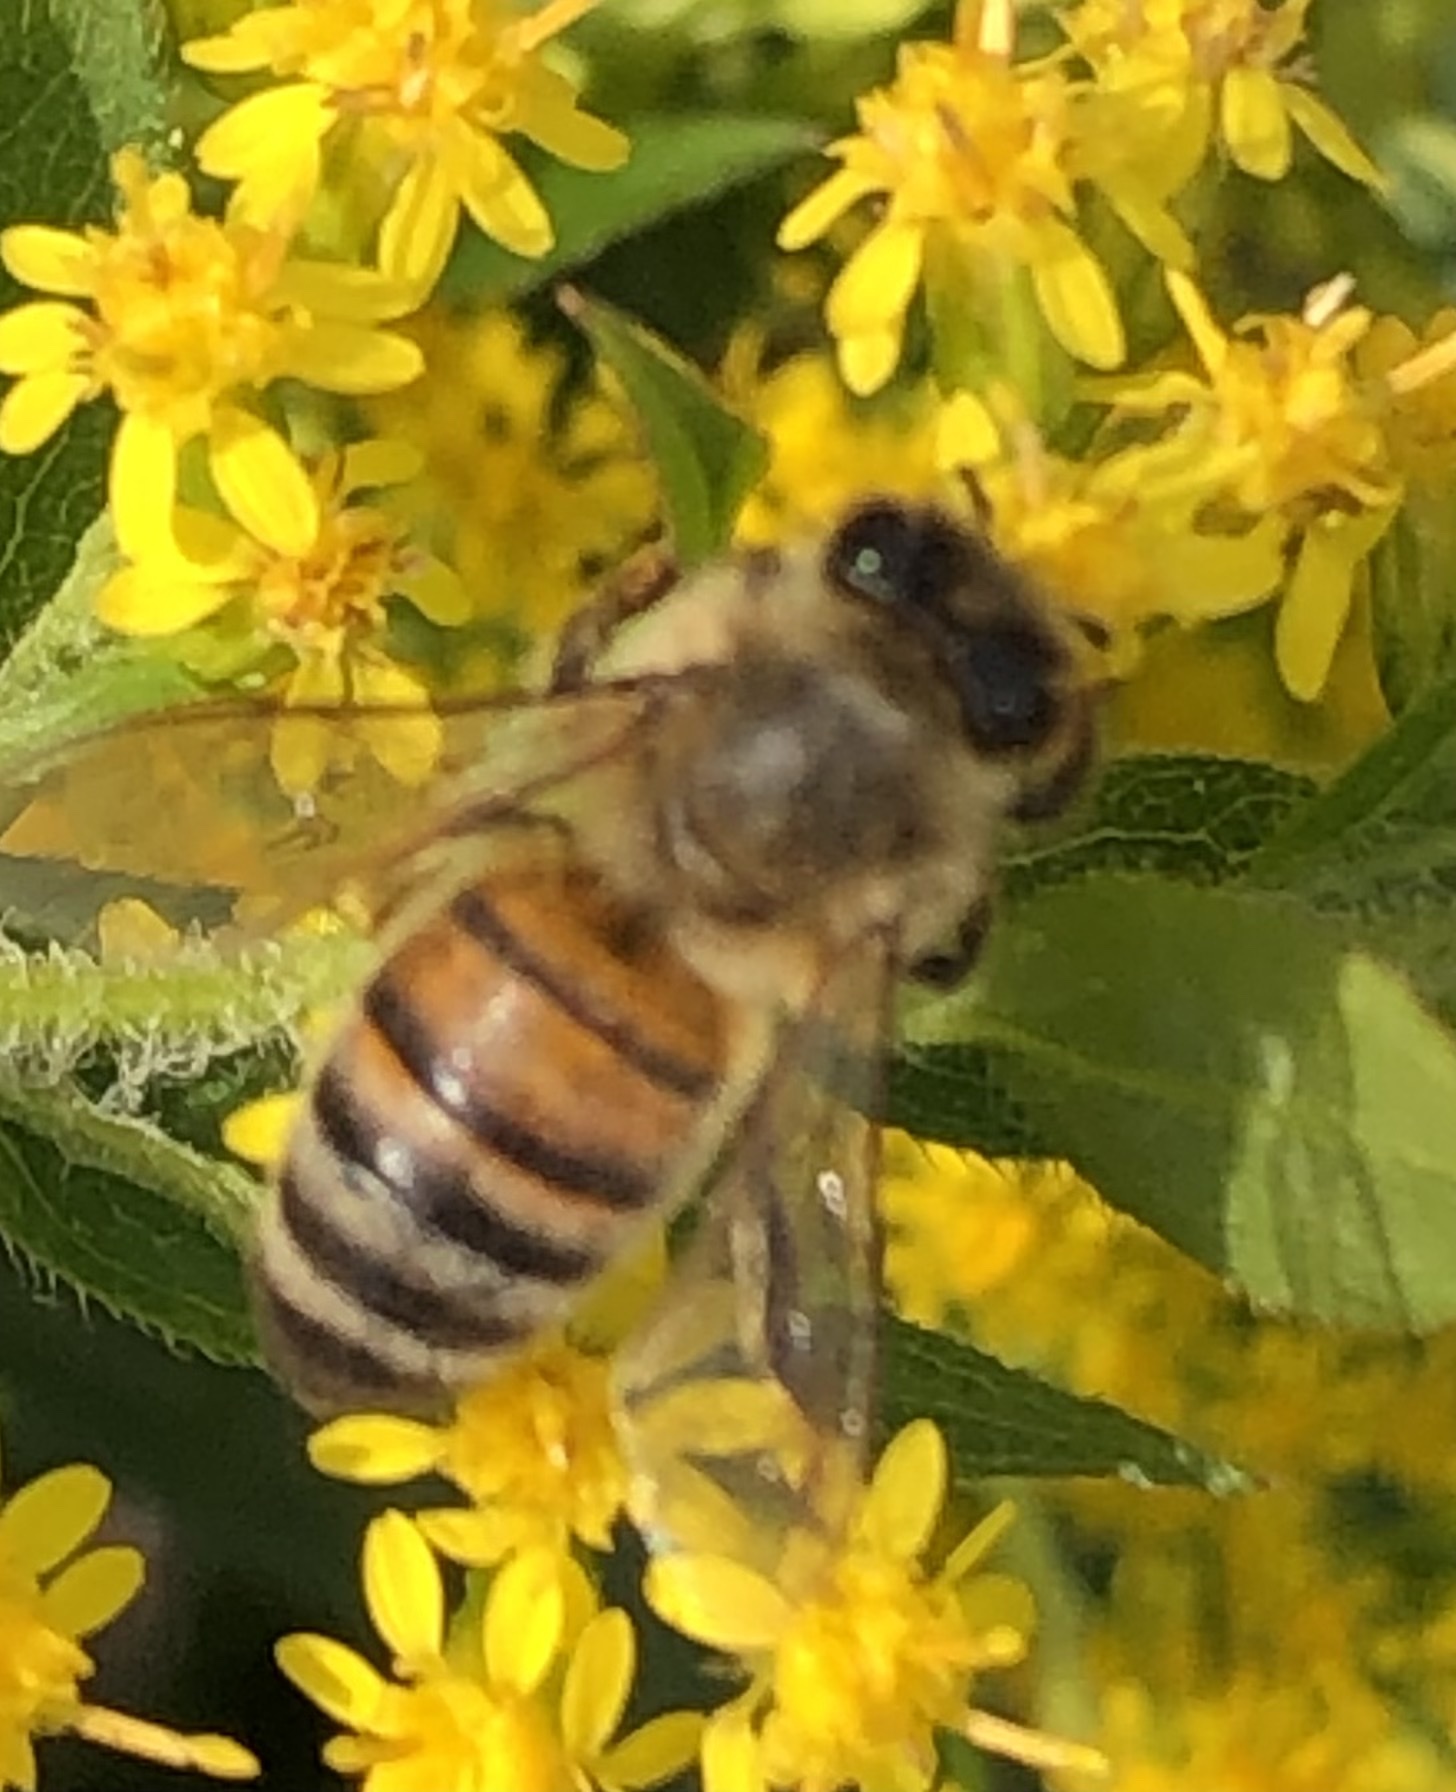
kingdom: Animalia
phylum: Arthropoda
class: Insecta
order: Hymenoptera
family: Apidae
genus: Apis
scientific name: Apis mellifera
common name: Honey bee
